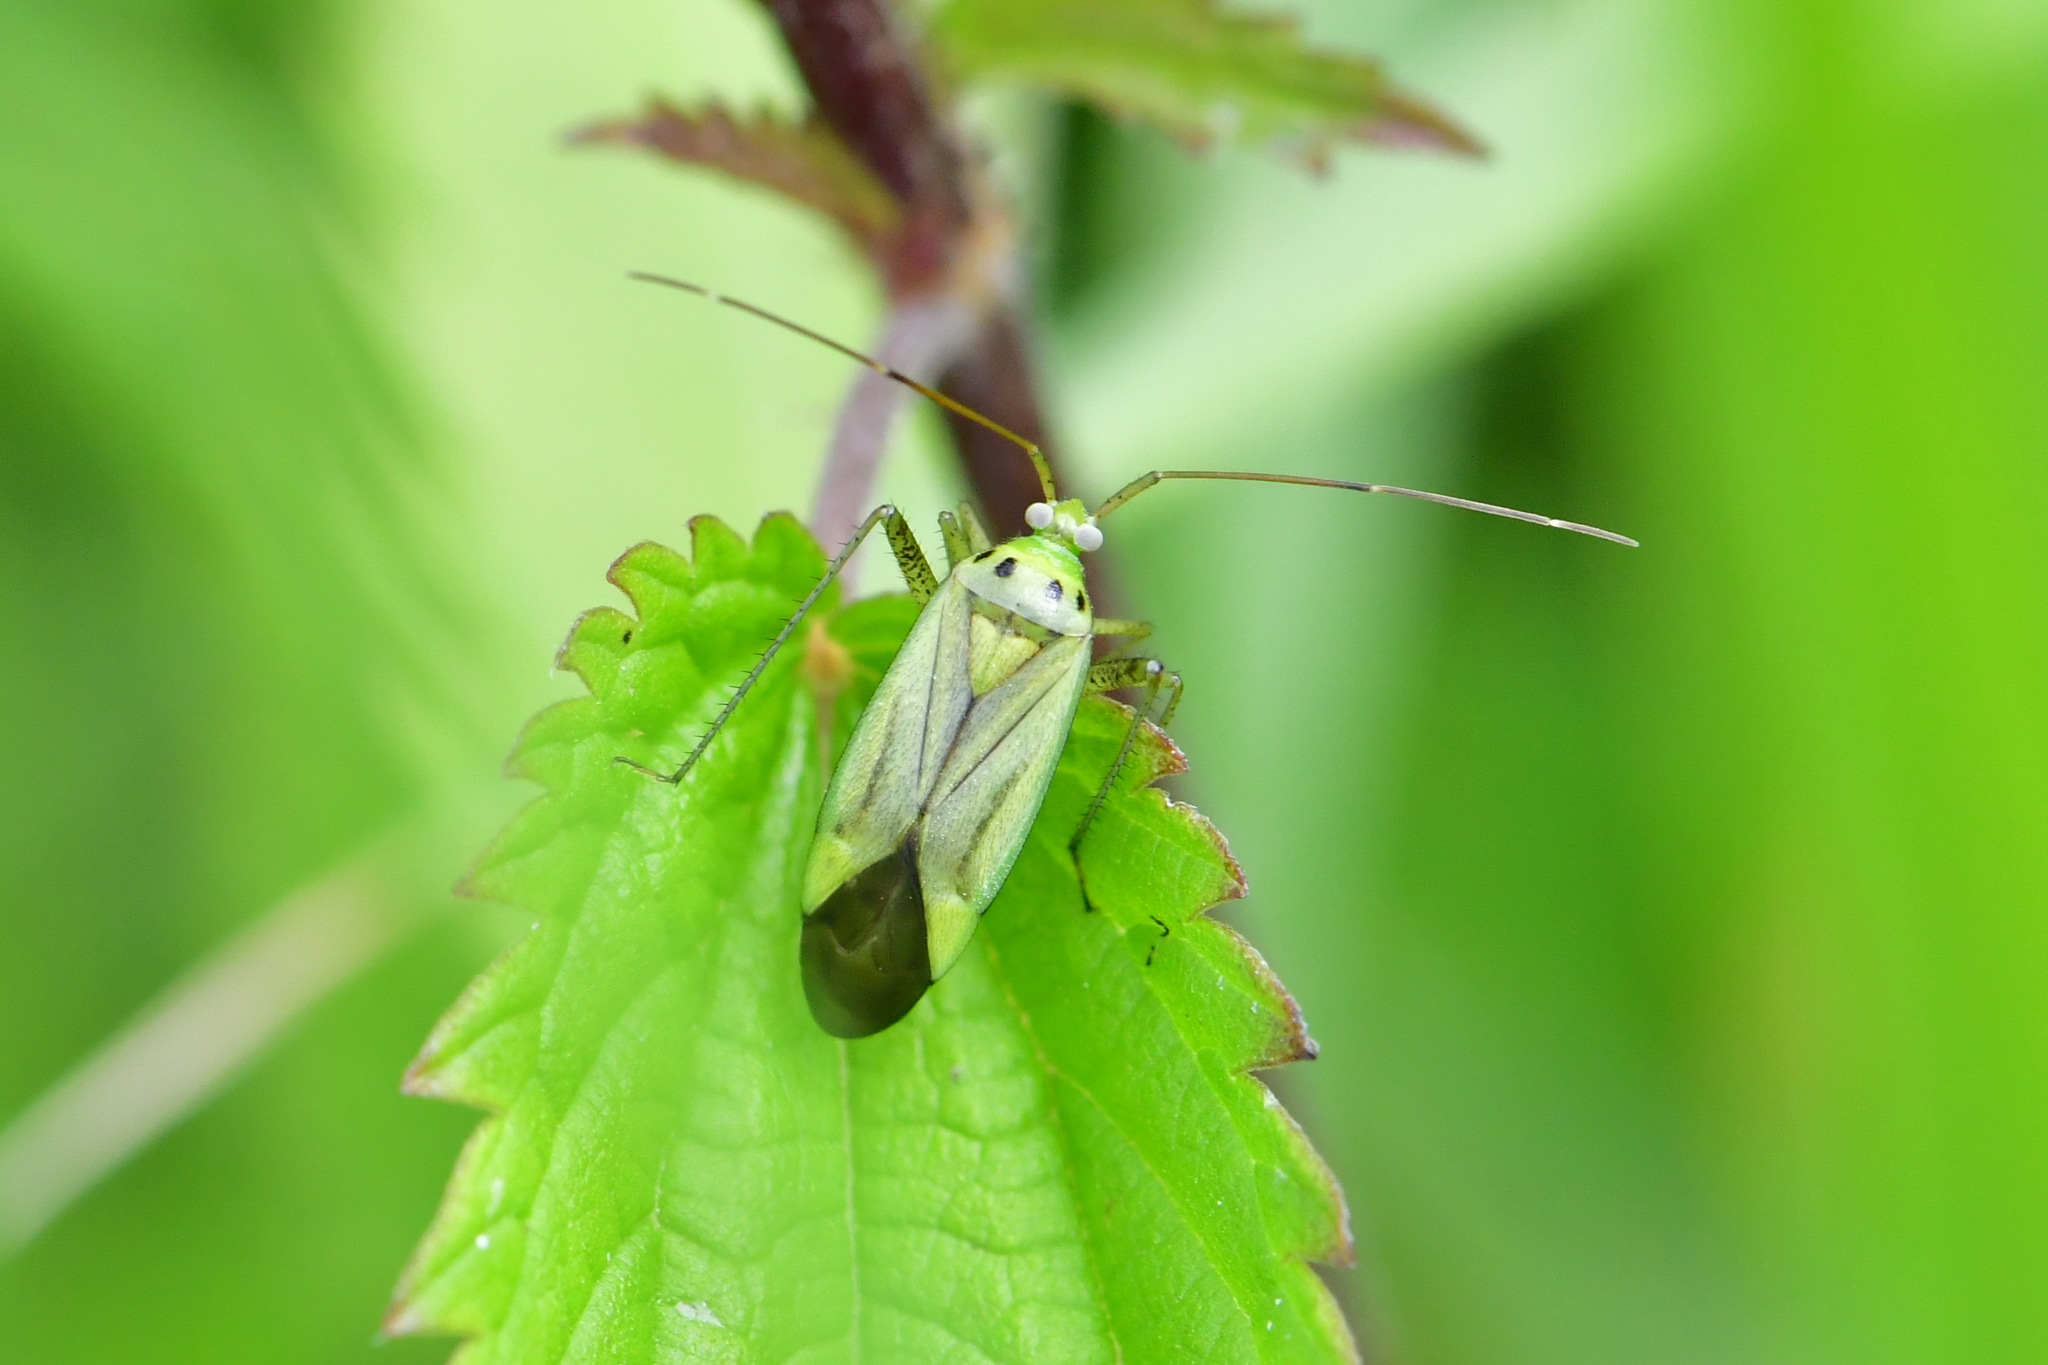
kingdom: Animalia
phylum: Arthropoda
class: Insecta
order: Hemiptera
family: Miridae
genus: Adelphocoris
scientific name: Adelphocoris quadripunctatus
